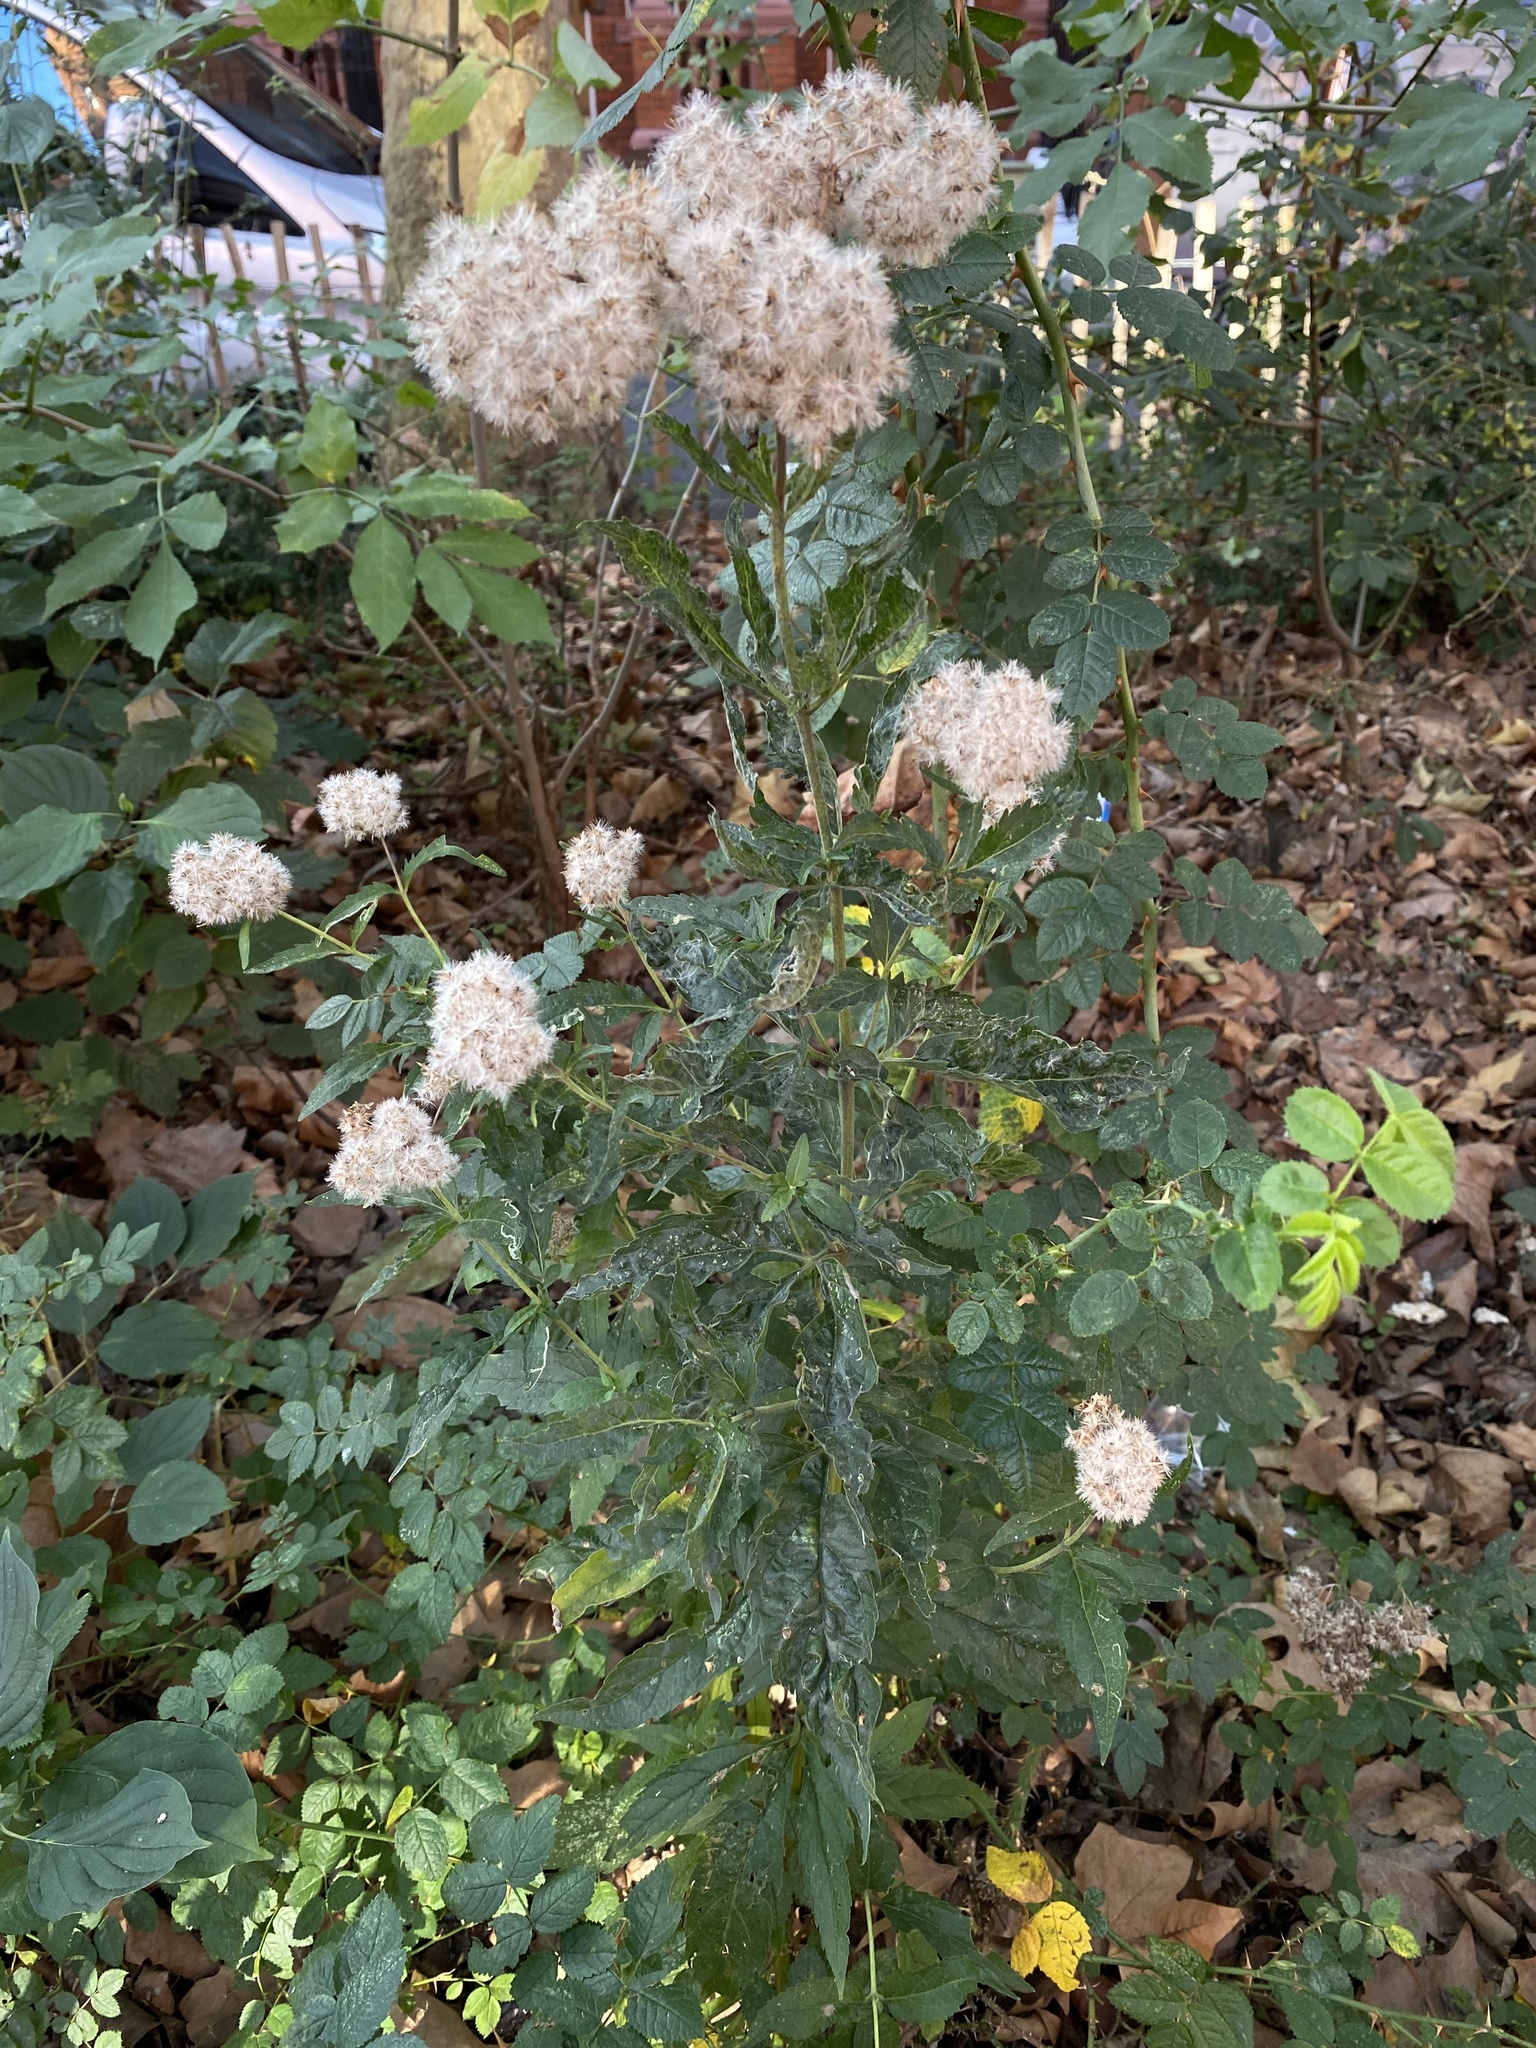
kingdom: Plantae
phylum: Tracheophyta
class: Magnoliopsida
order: Asterales
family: Asteraceae
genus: Eupatorium
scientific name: Eupatorium cannabinum
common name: Hemp-agrimony
